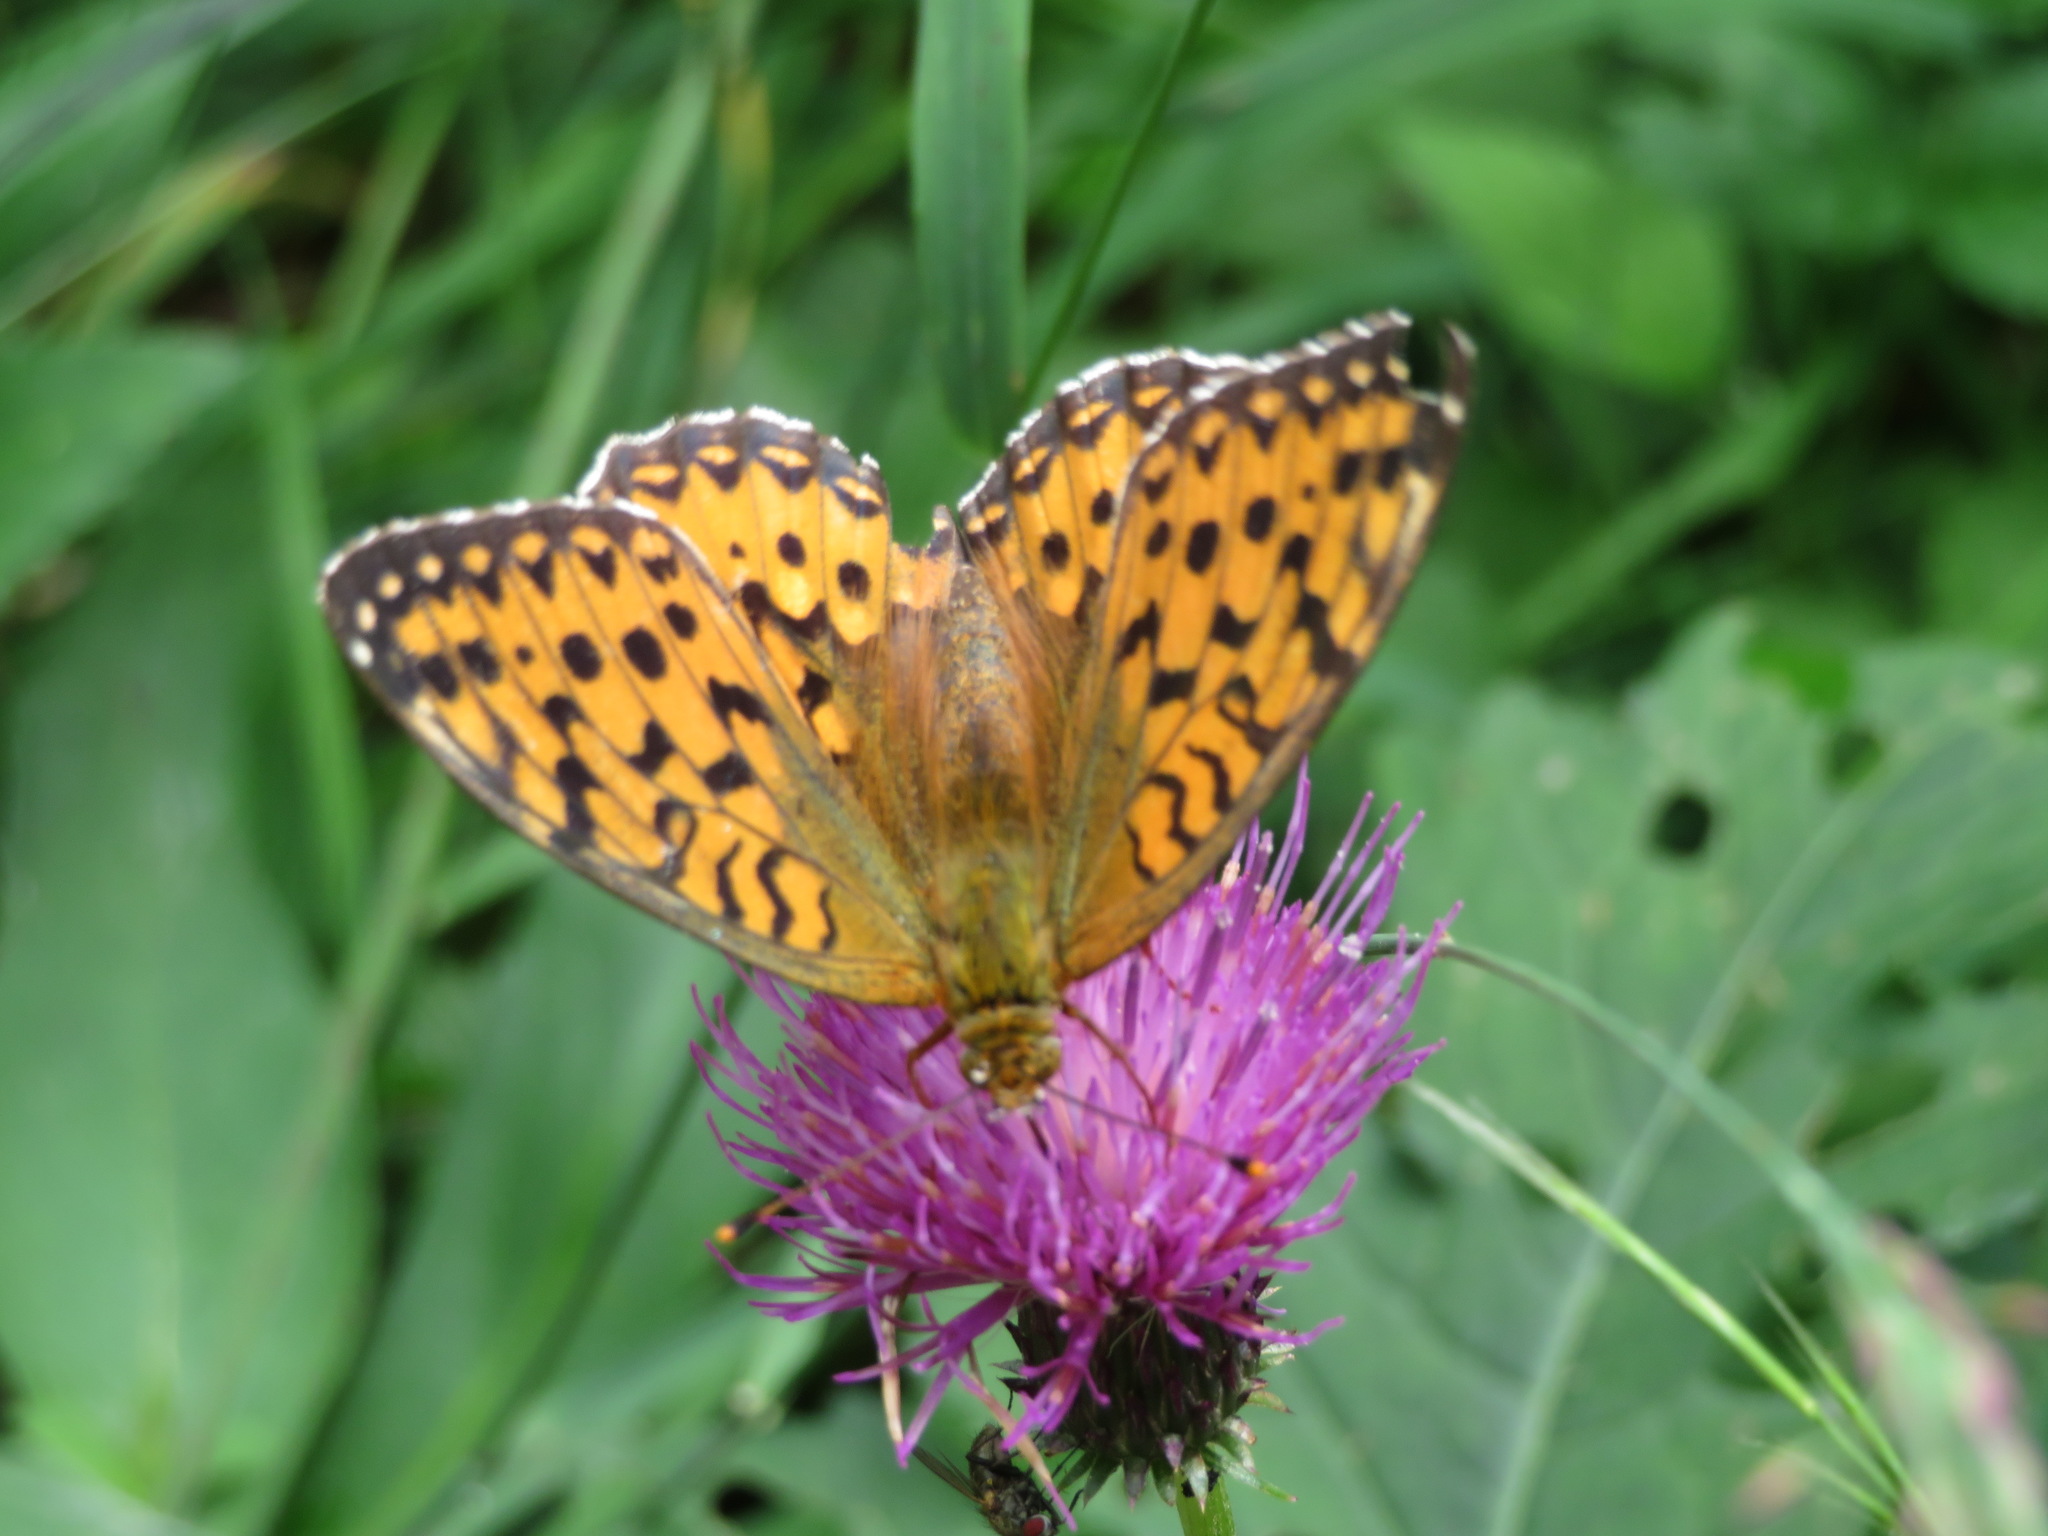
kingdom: Animalia
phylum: Arthropoda
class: Insecta
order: Lepidoptera
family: Nymphalidae
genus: Speyeria
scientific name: Speyeria aglaja
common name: Dark green fritillary
